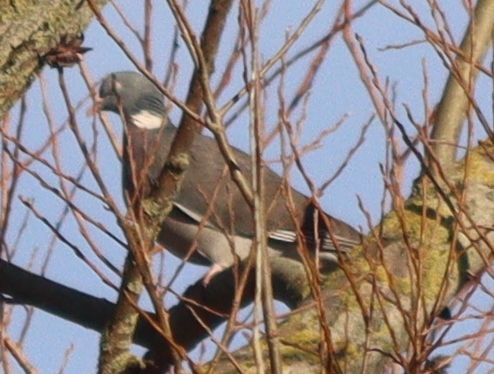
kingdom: Animalia
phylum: Chordata
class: Aves
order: Columbiformes
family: Columbidae
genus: Columba
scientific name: Columba palumbus
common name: Common wood pigeon
